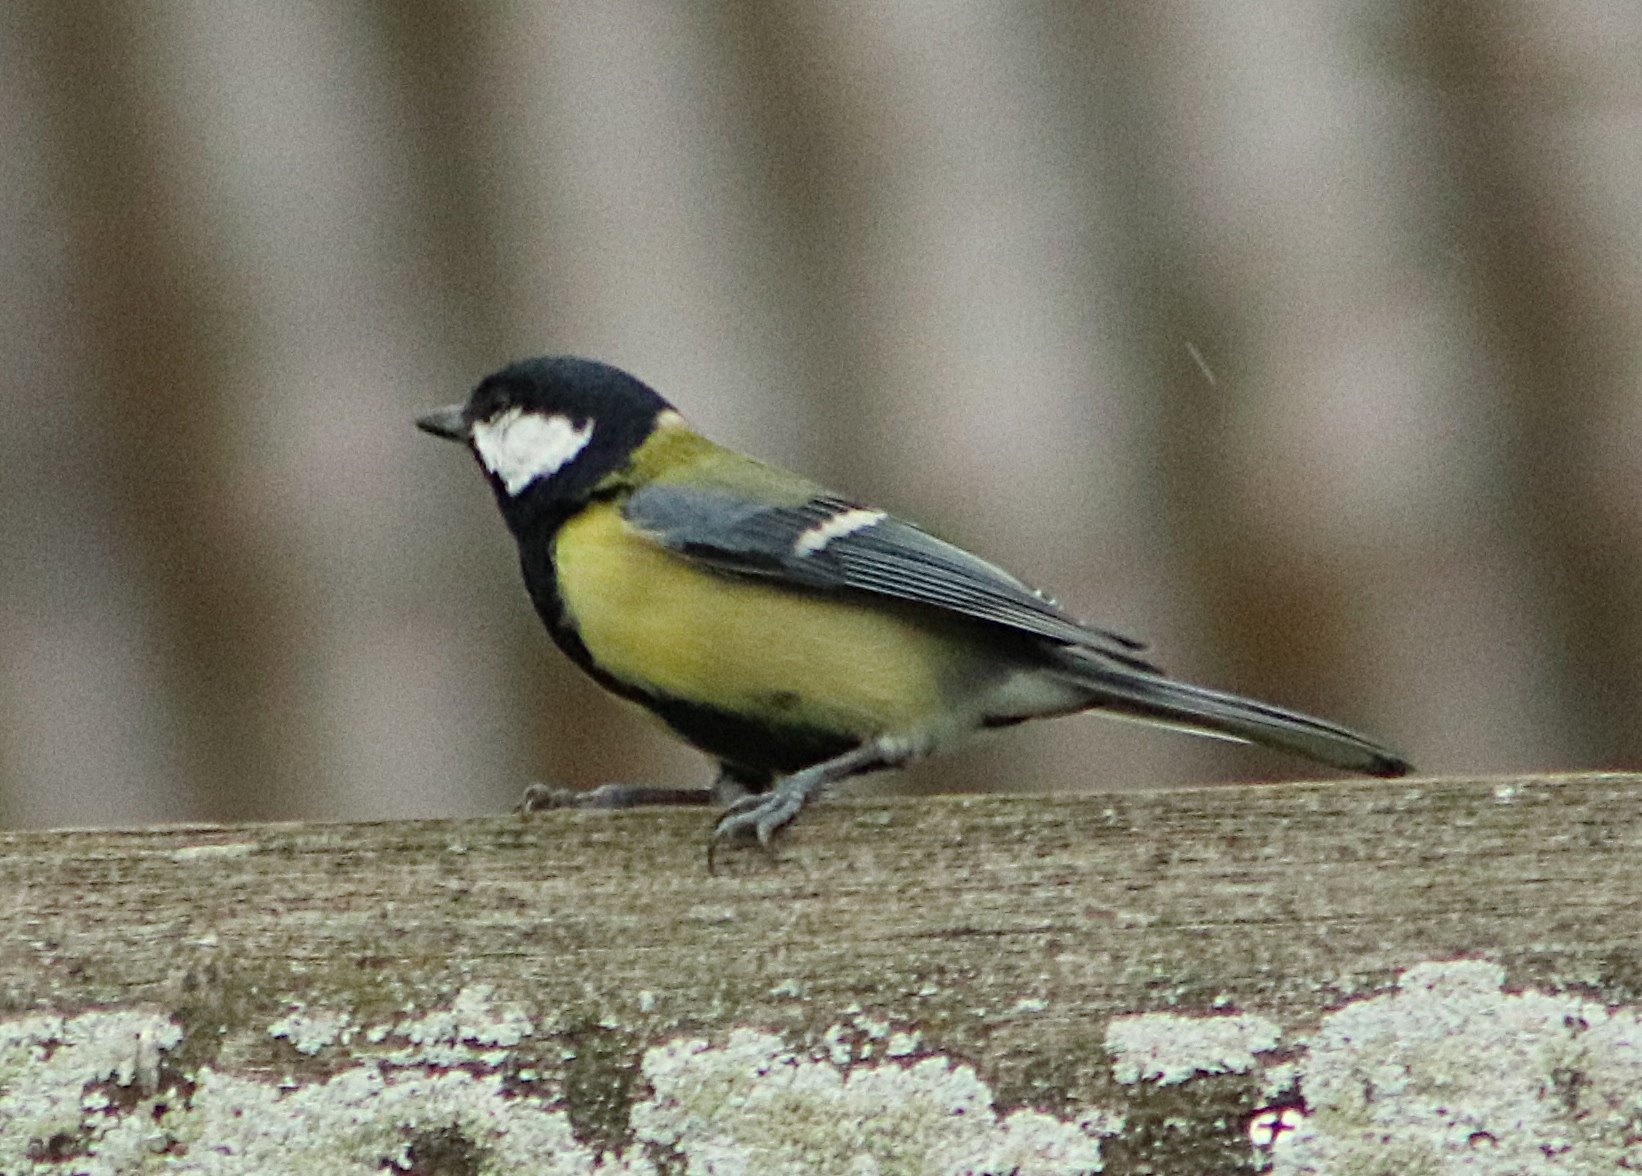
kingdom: Animalia
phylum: Chordata
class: Aves
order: Passeriformes
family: Paridae
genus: Parus
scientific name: Parus major
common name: Great tit
